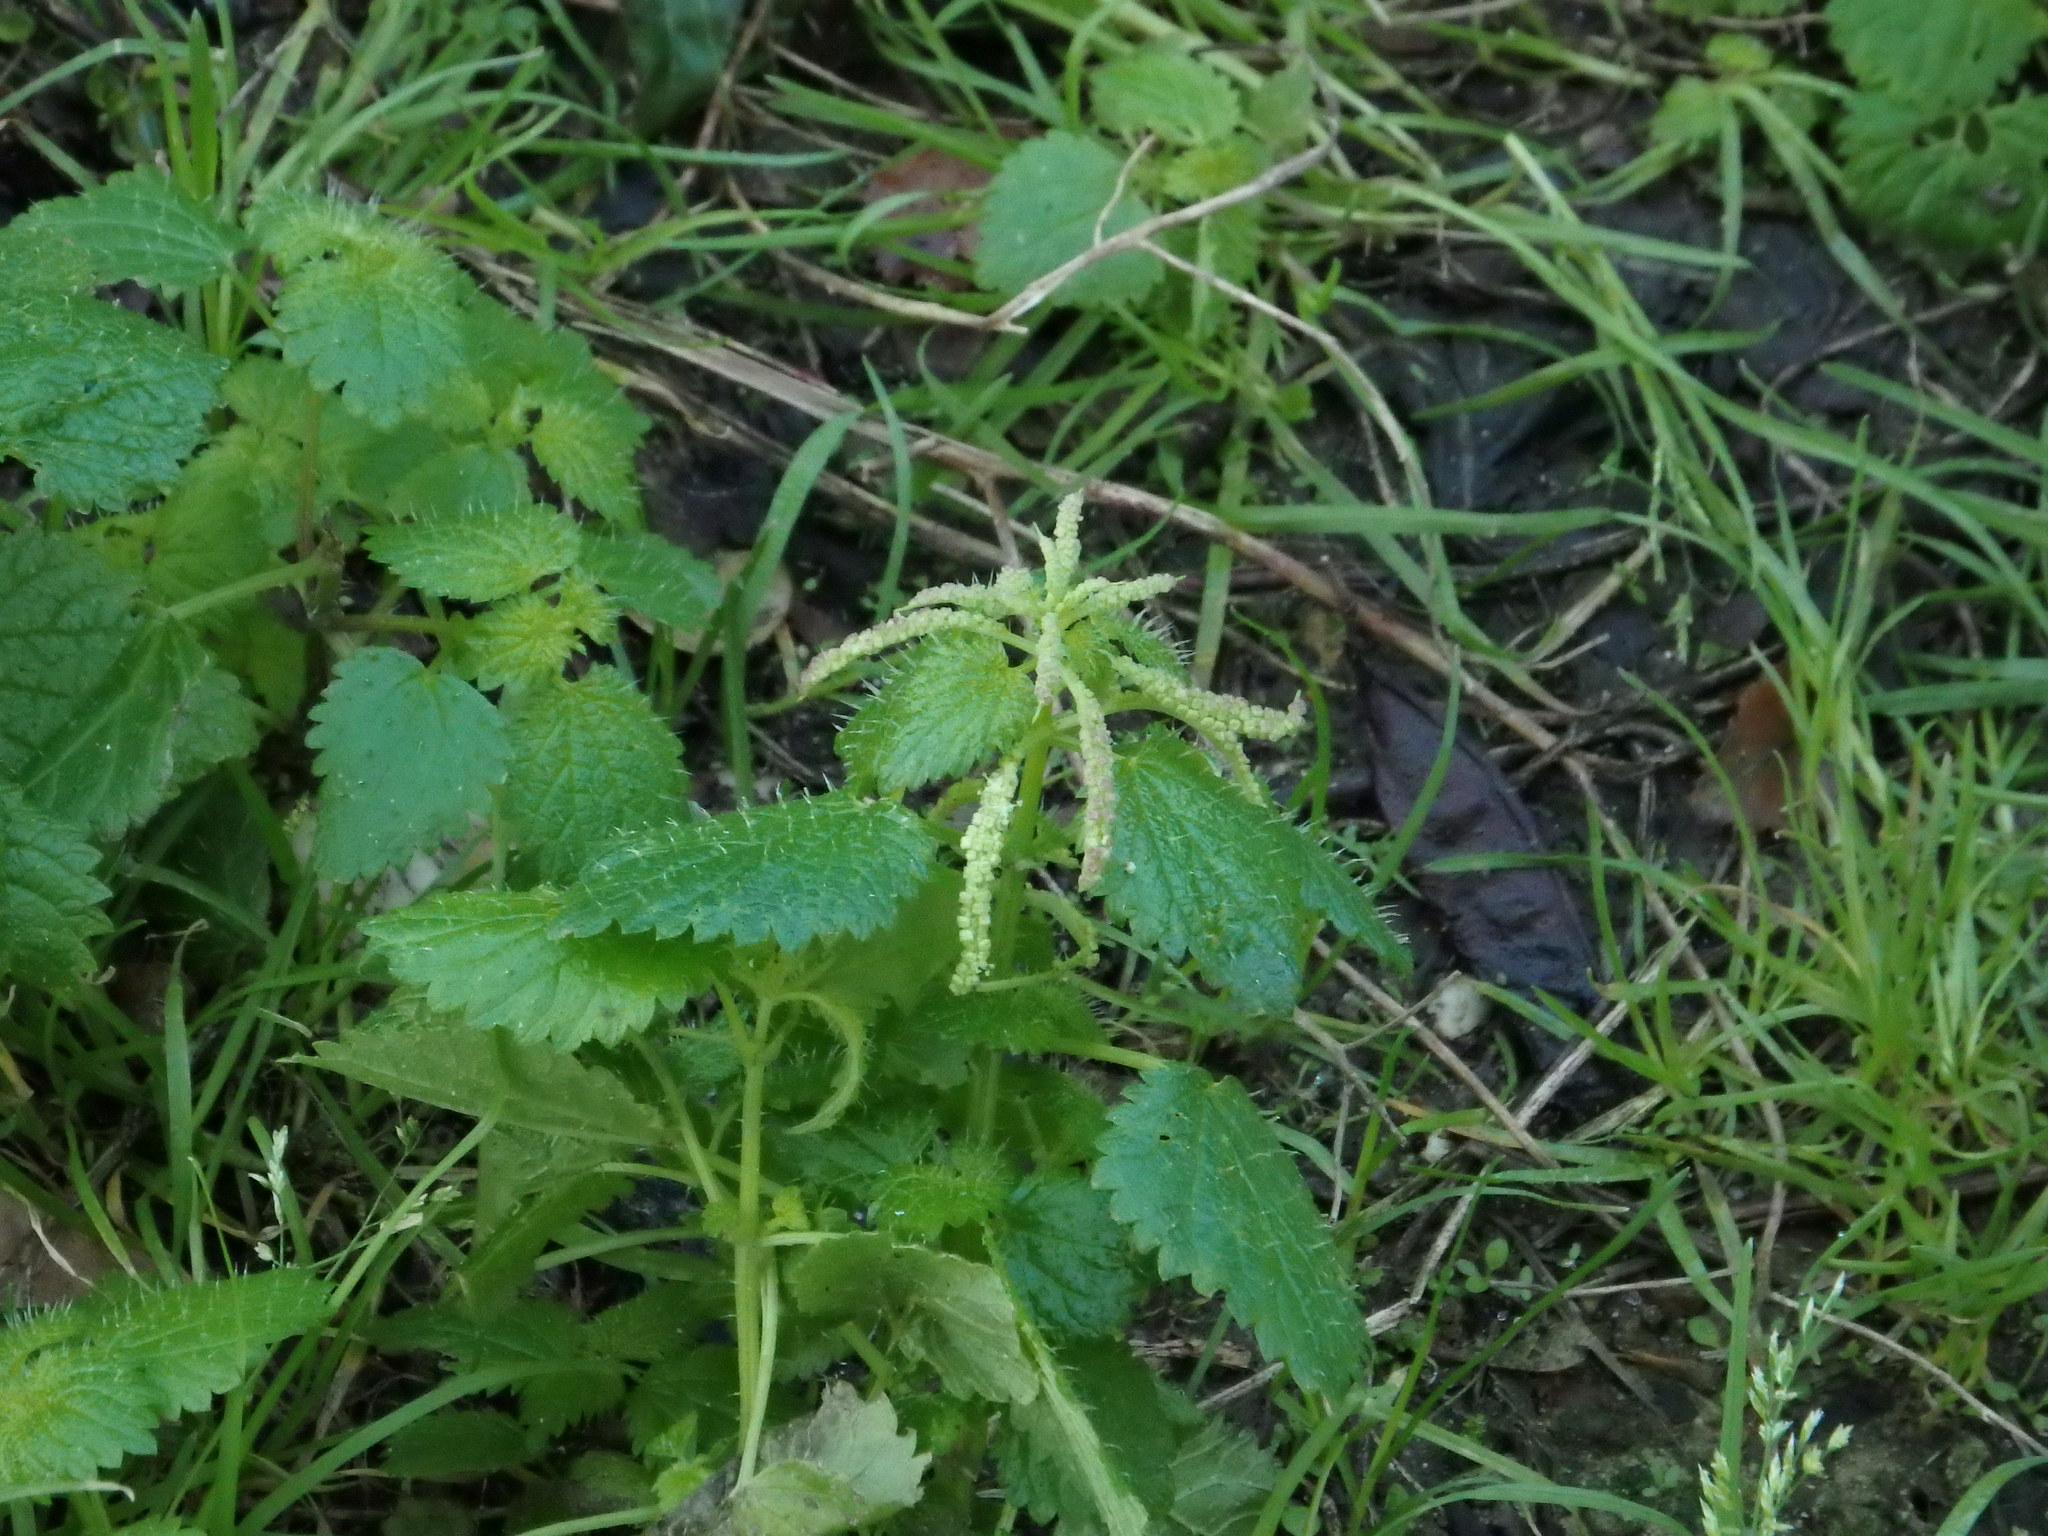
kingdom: Plantae
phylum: Tracheophyta
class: Magnoliopsida
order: Rosales
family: Urticaceae
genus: Urtica
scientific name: Urtica membranacea
